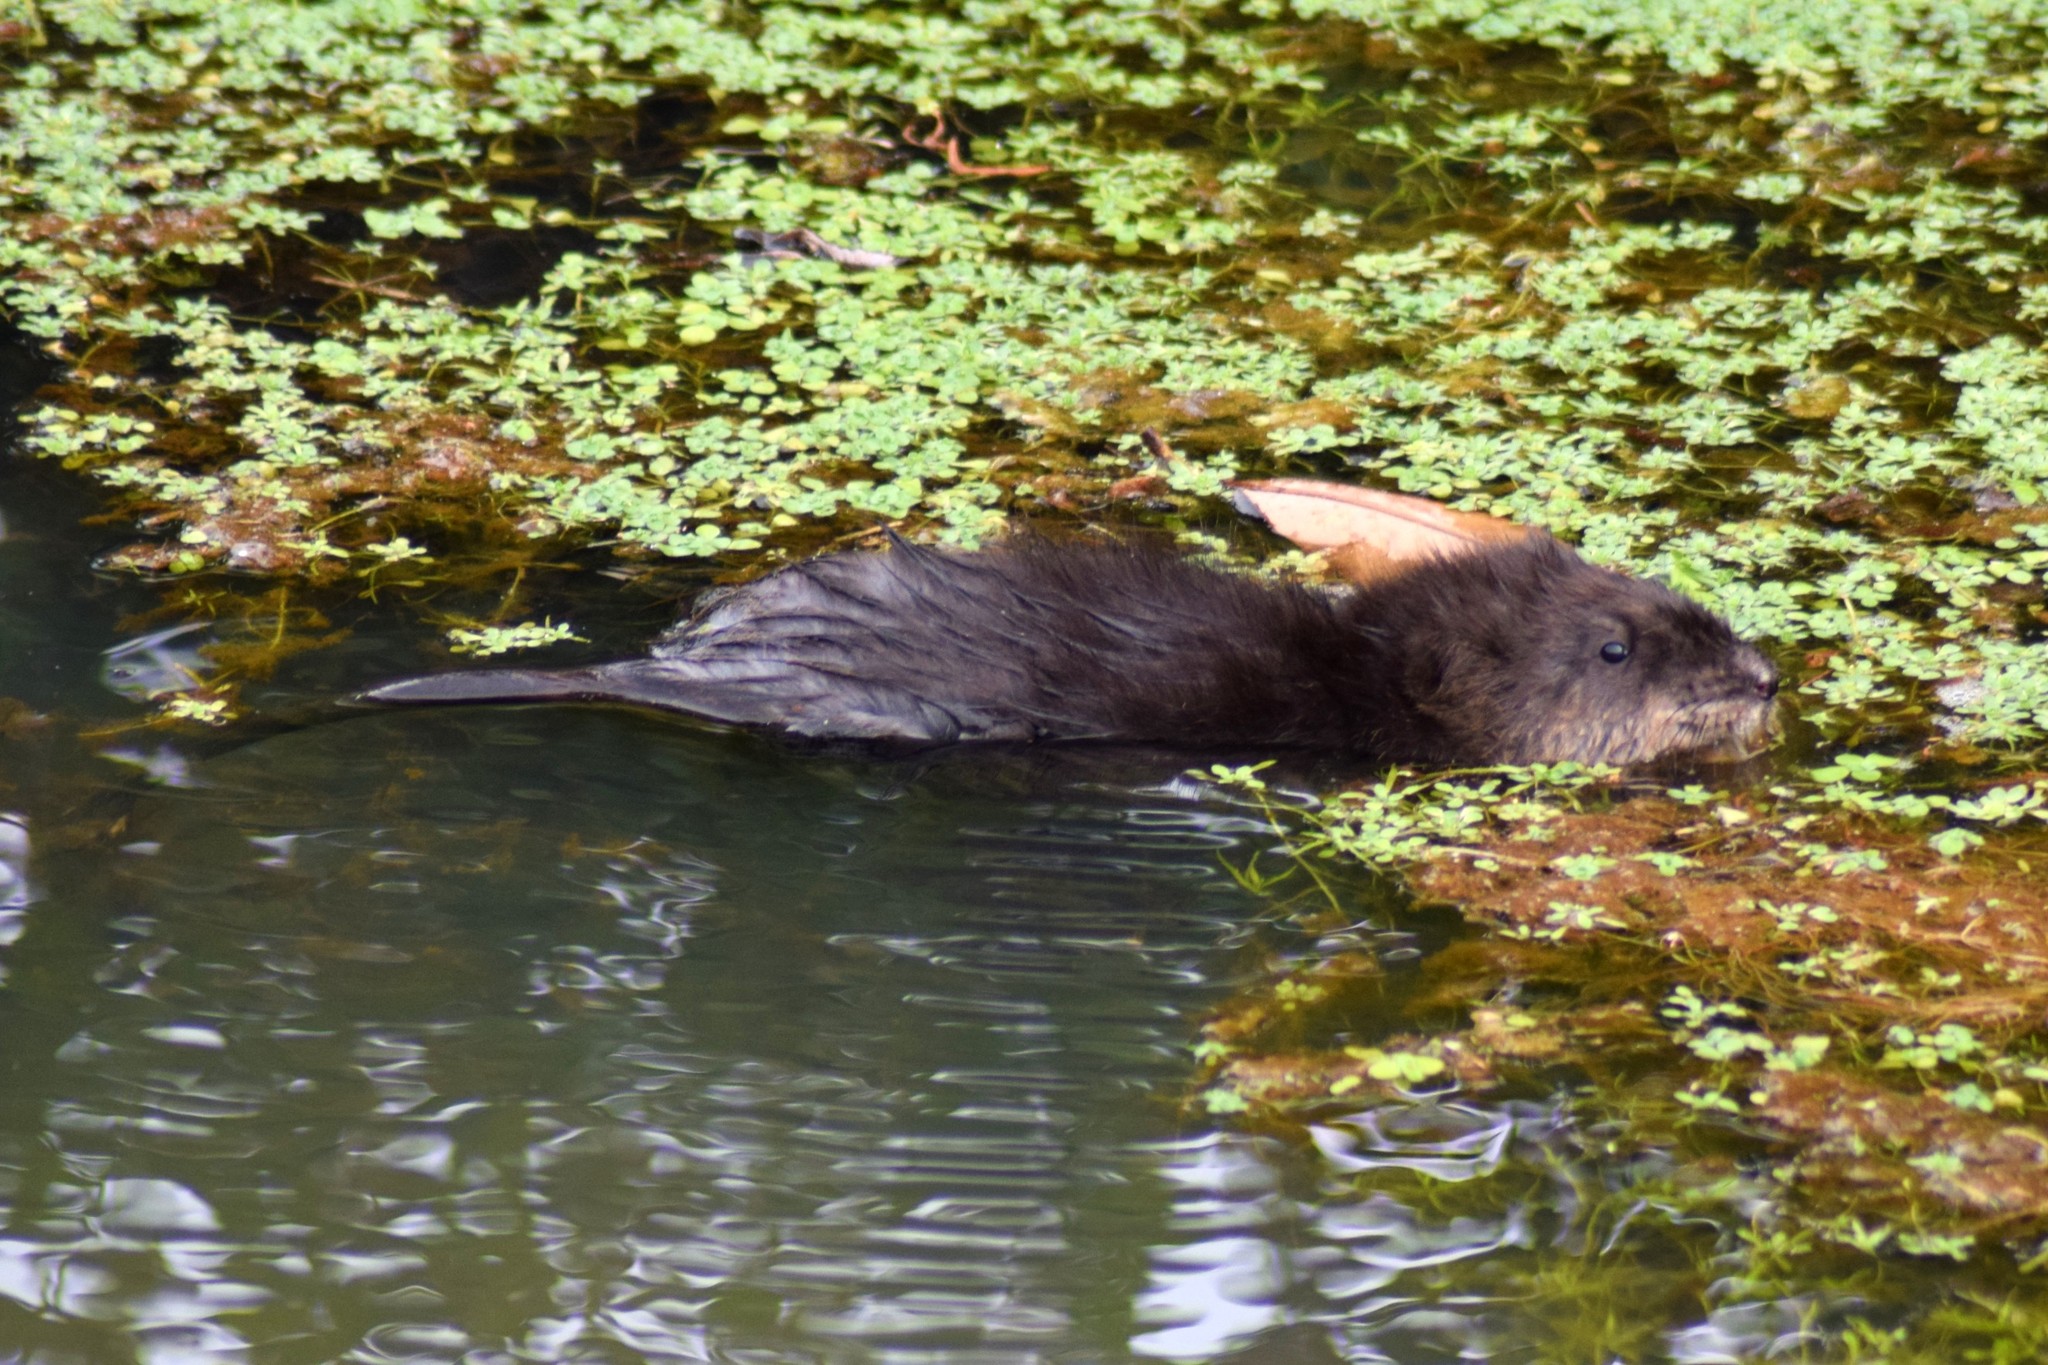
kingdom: Animalia
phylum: Chordata
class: Mammalia
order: Rodentia
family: Cricetidae
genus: Ondatra
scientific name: Ondatra zibethicus
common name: Muskrat
